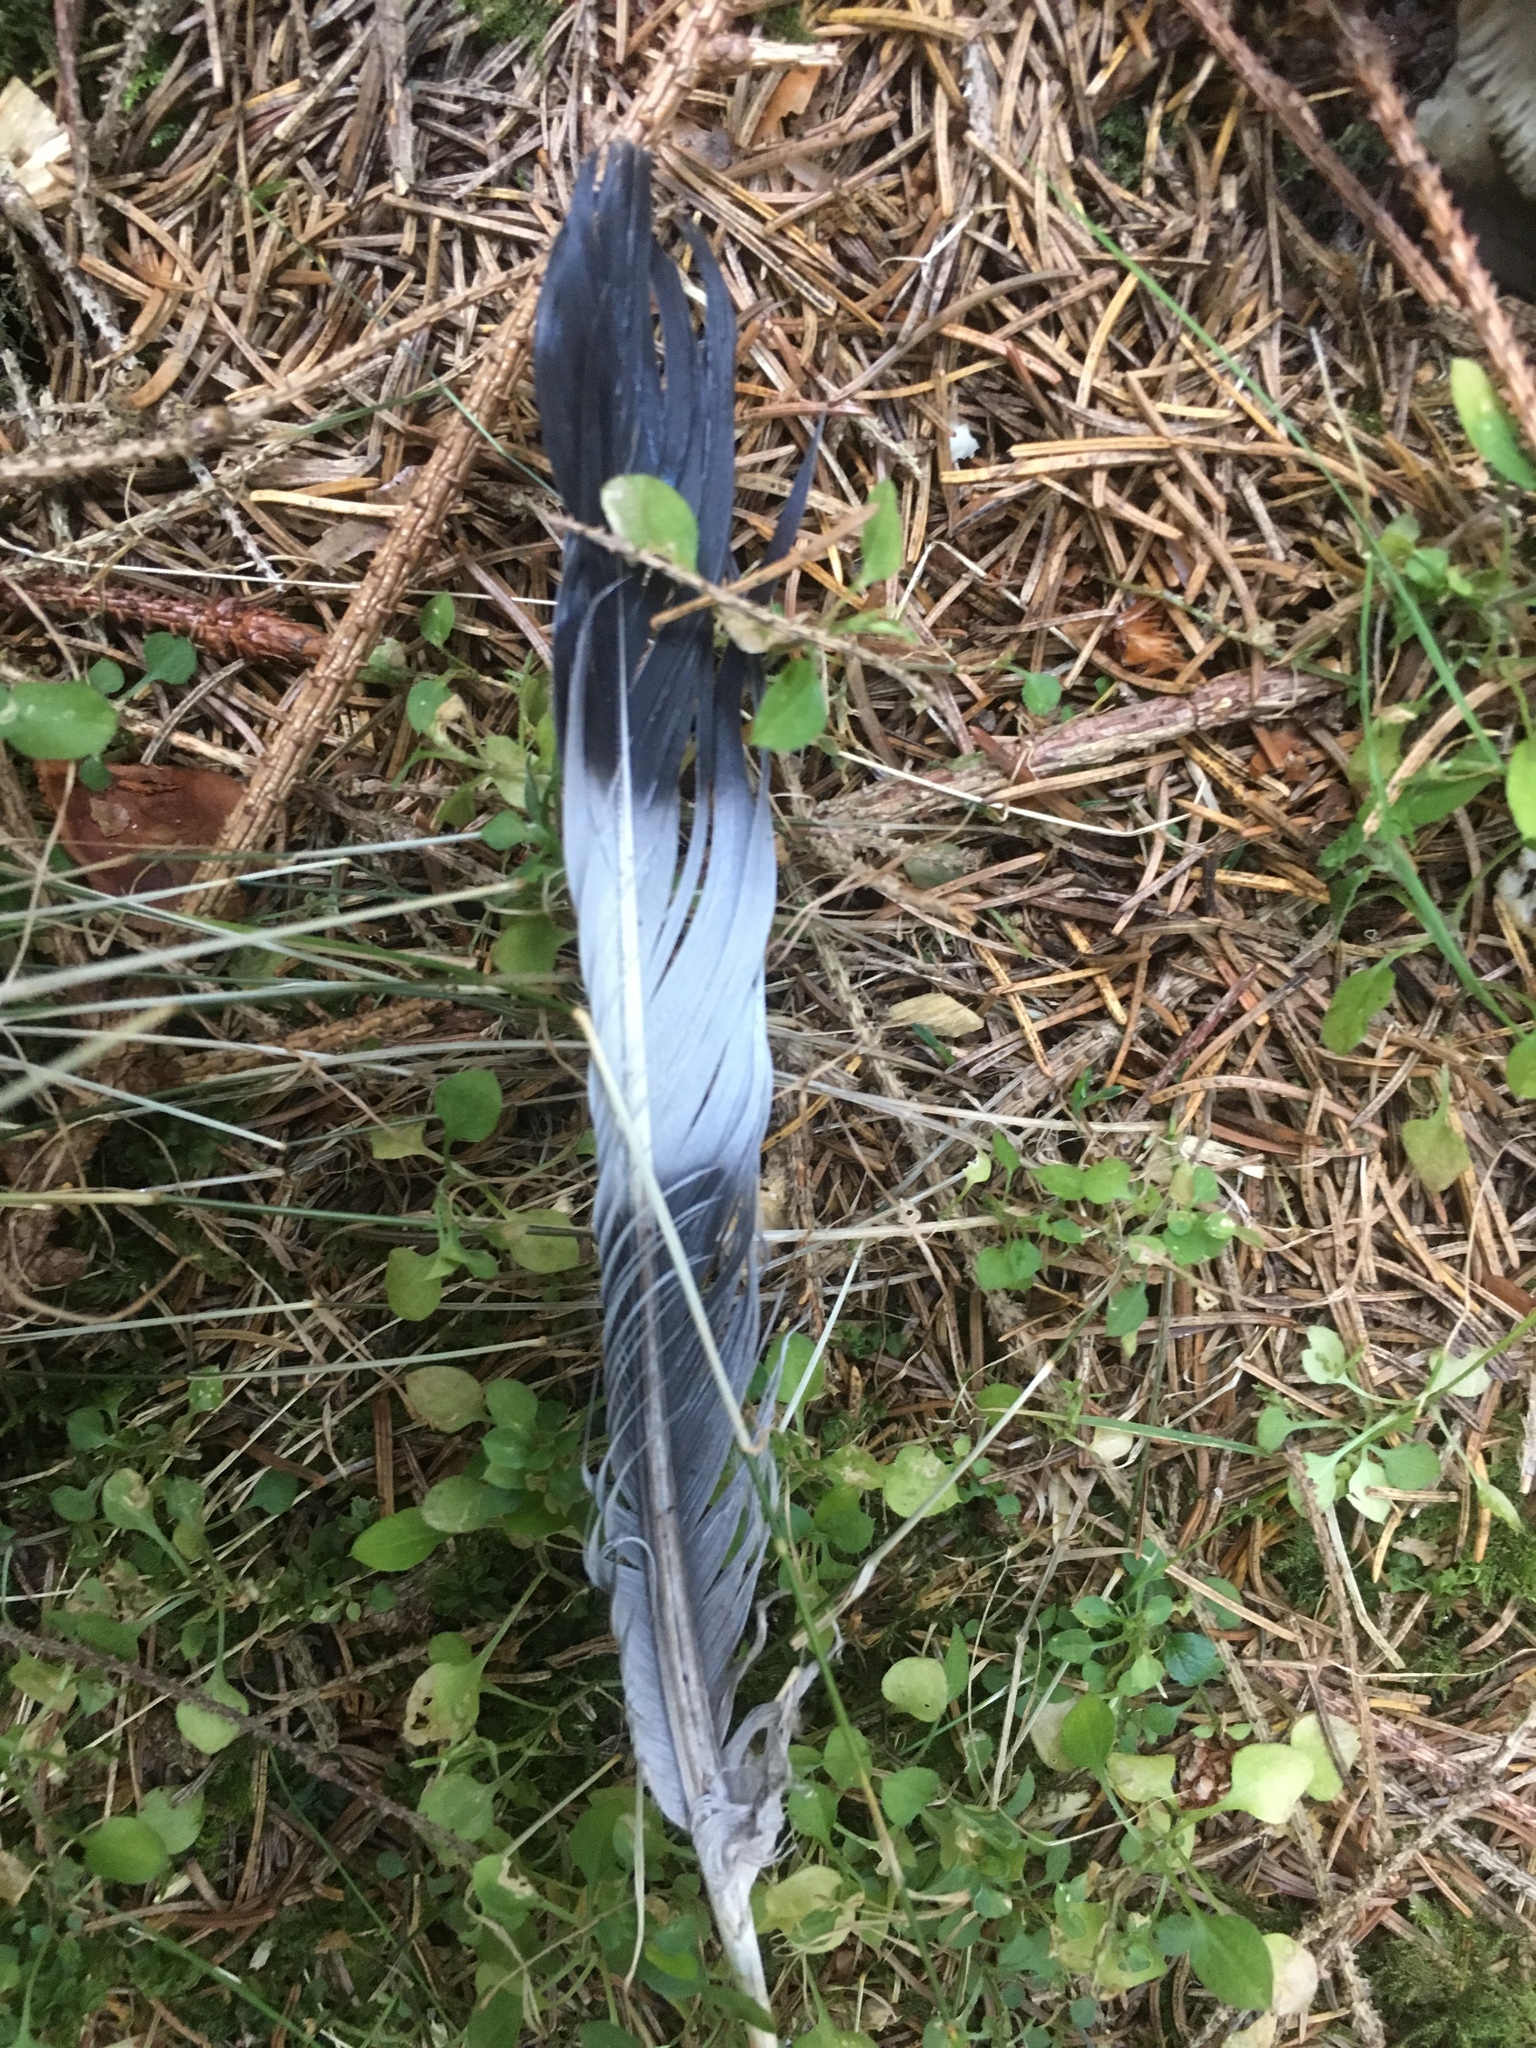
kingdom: Animalia
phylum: Chordata
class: Aves
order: Columbiformes
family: Columbidae
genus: Columba
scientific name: Columba palumbus
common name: Common wood pigeon
